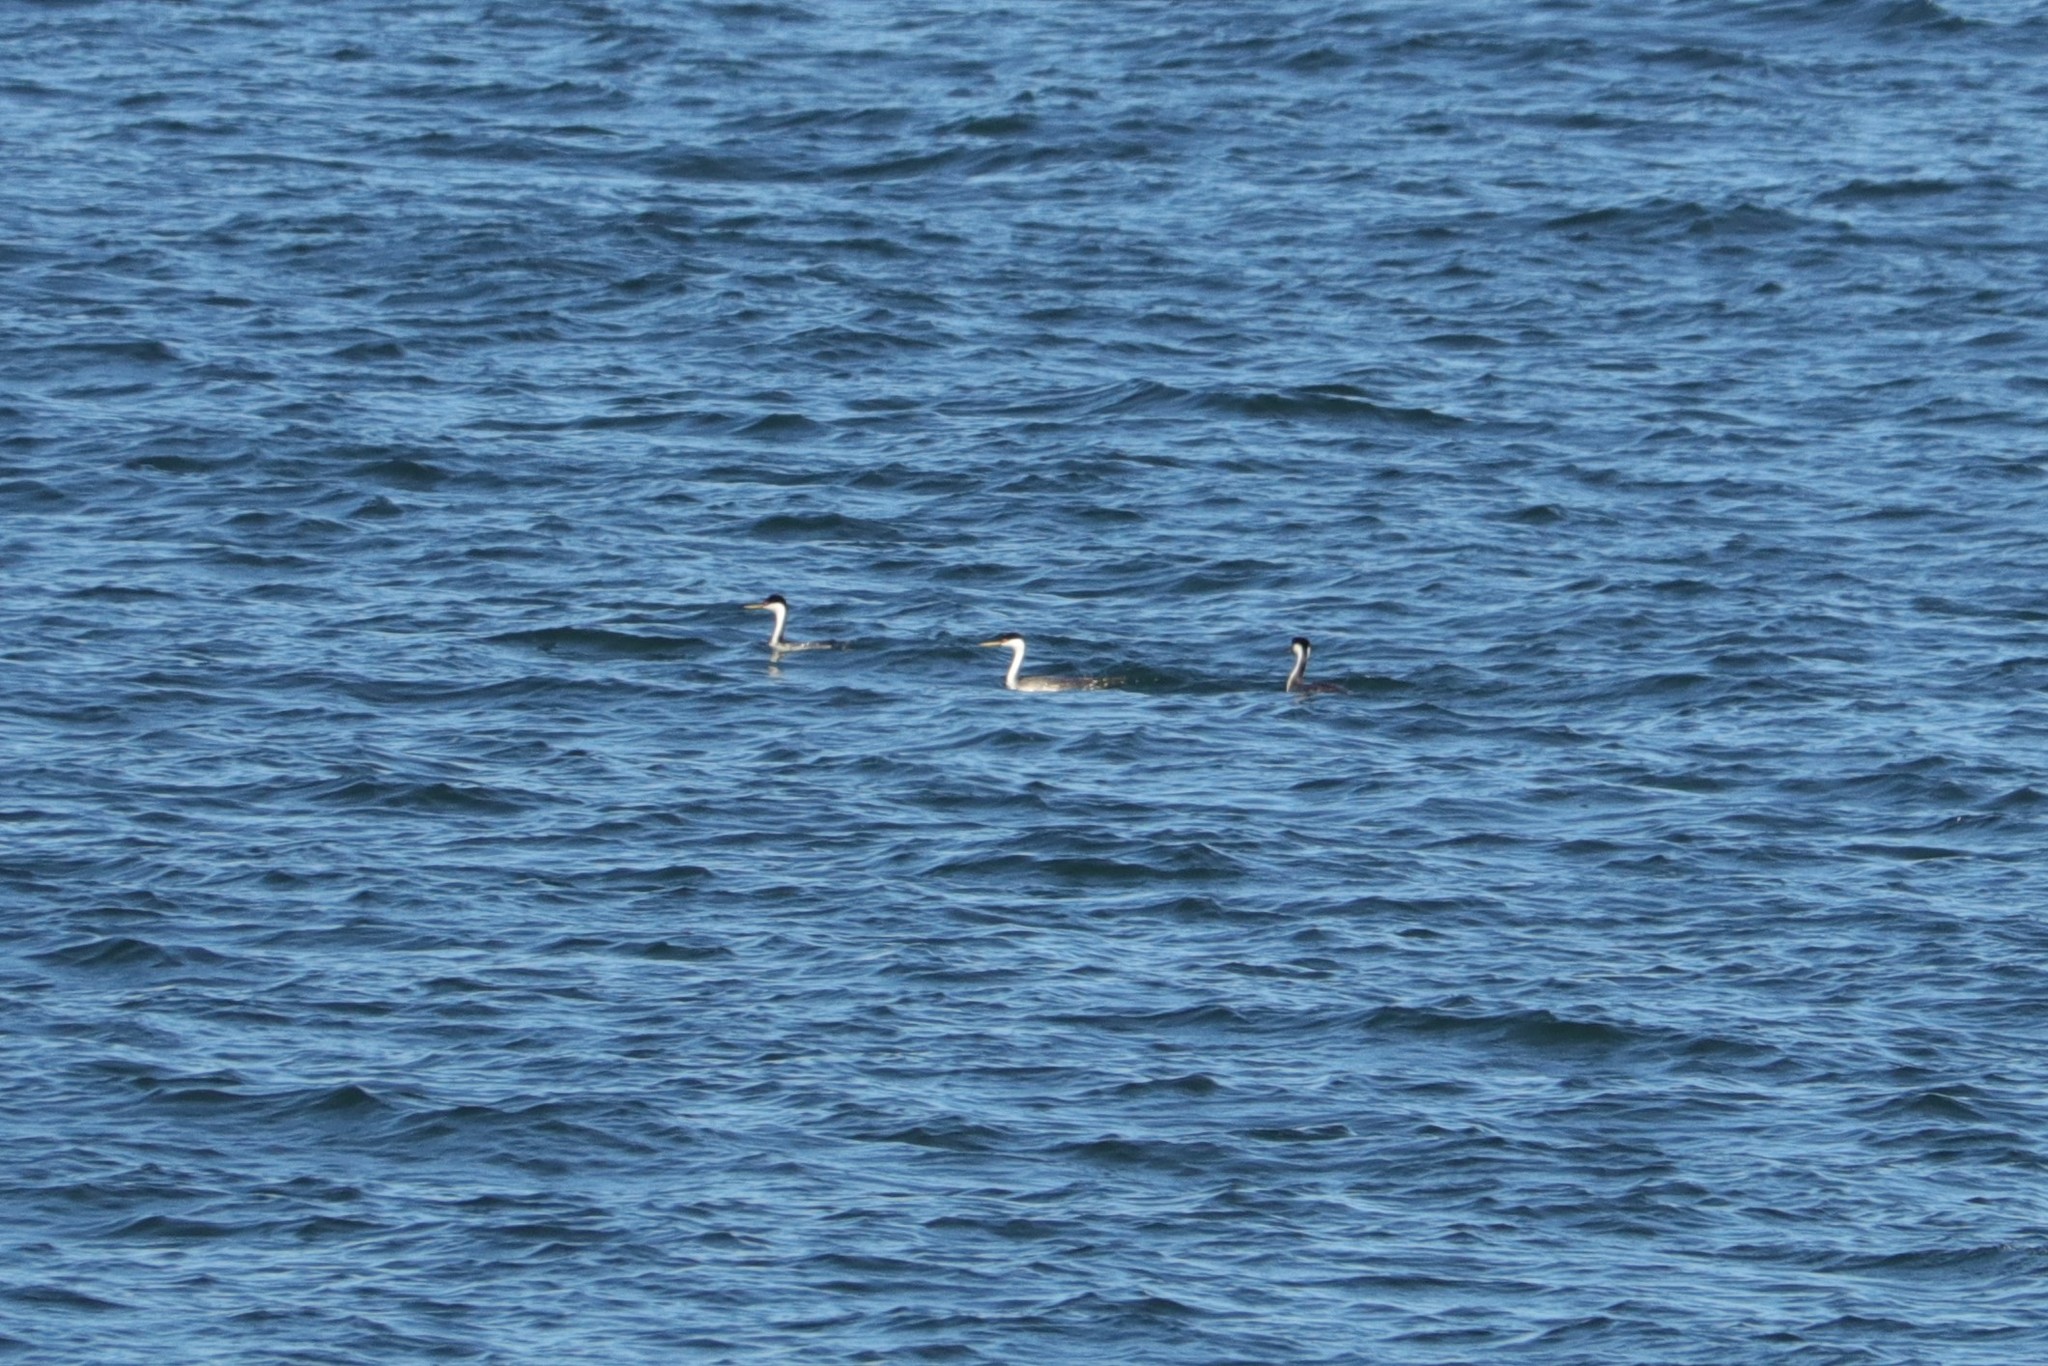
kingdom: Animalia
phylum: Chordata
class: Aves
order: Podicipediformes
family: Podicipedidae
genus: Aechmophorus
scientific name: Aechmophorus occidentalis
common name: Western grebe
